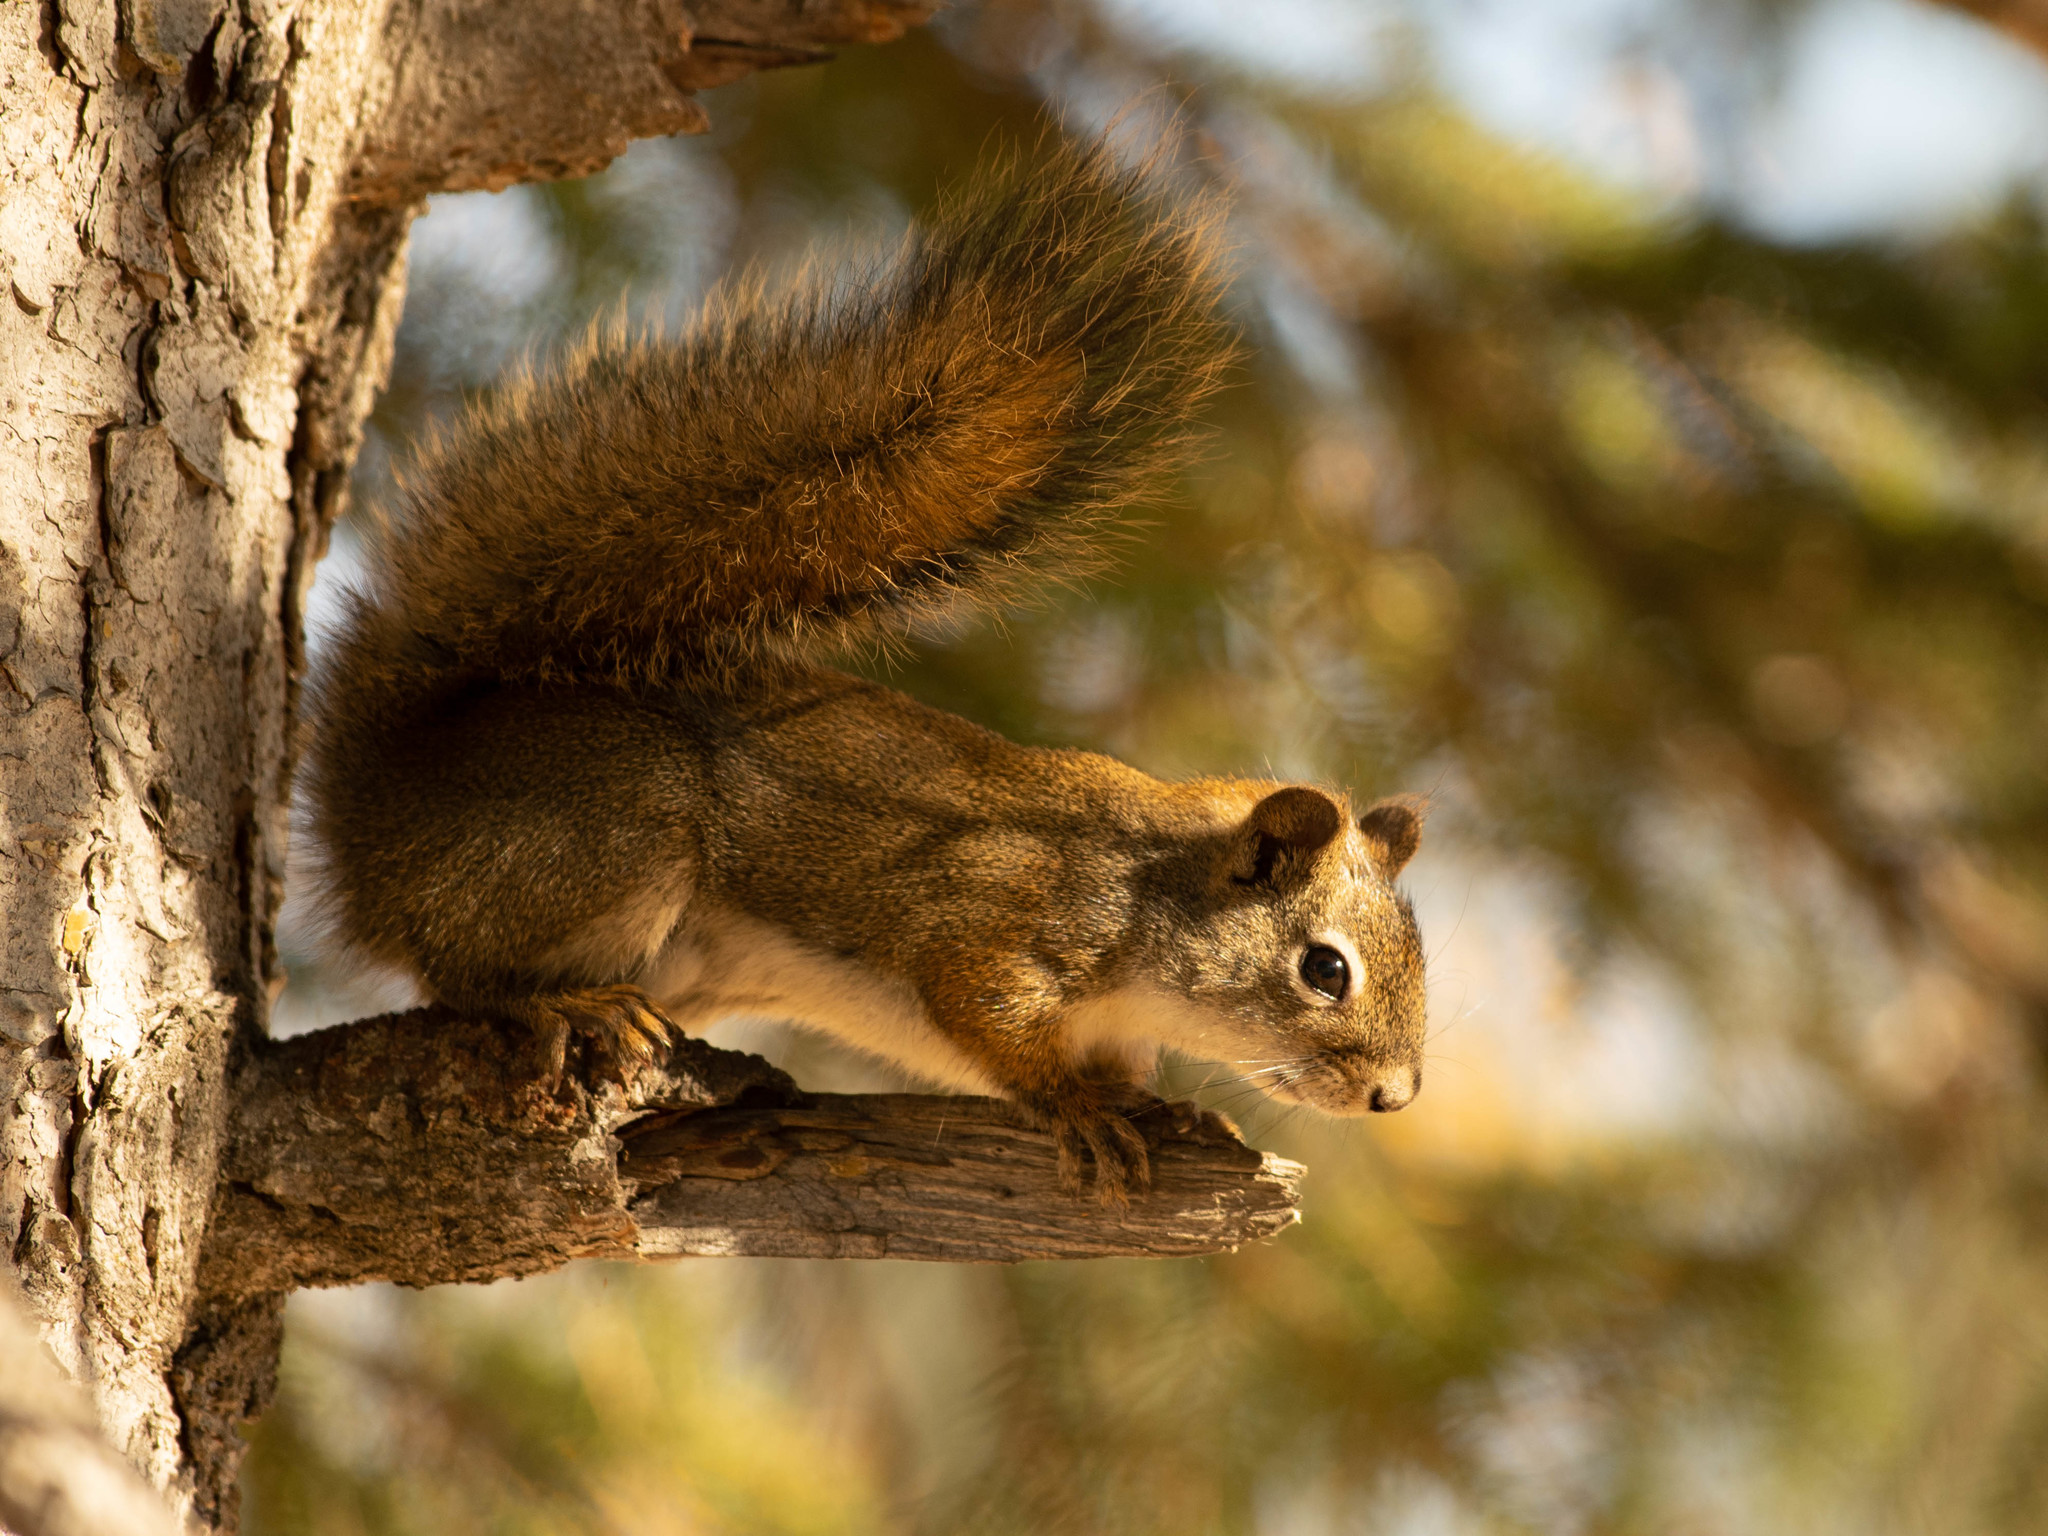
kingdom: Animalia
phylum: Chordata
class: Mammalia
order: Rodentia
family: Sciuridae
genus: Tamiasciurus
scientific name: Tamiasciurus hudsonicus
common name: Red squirrel
